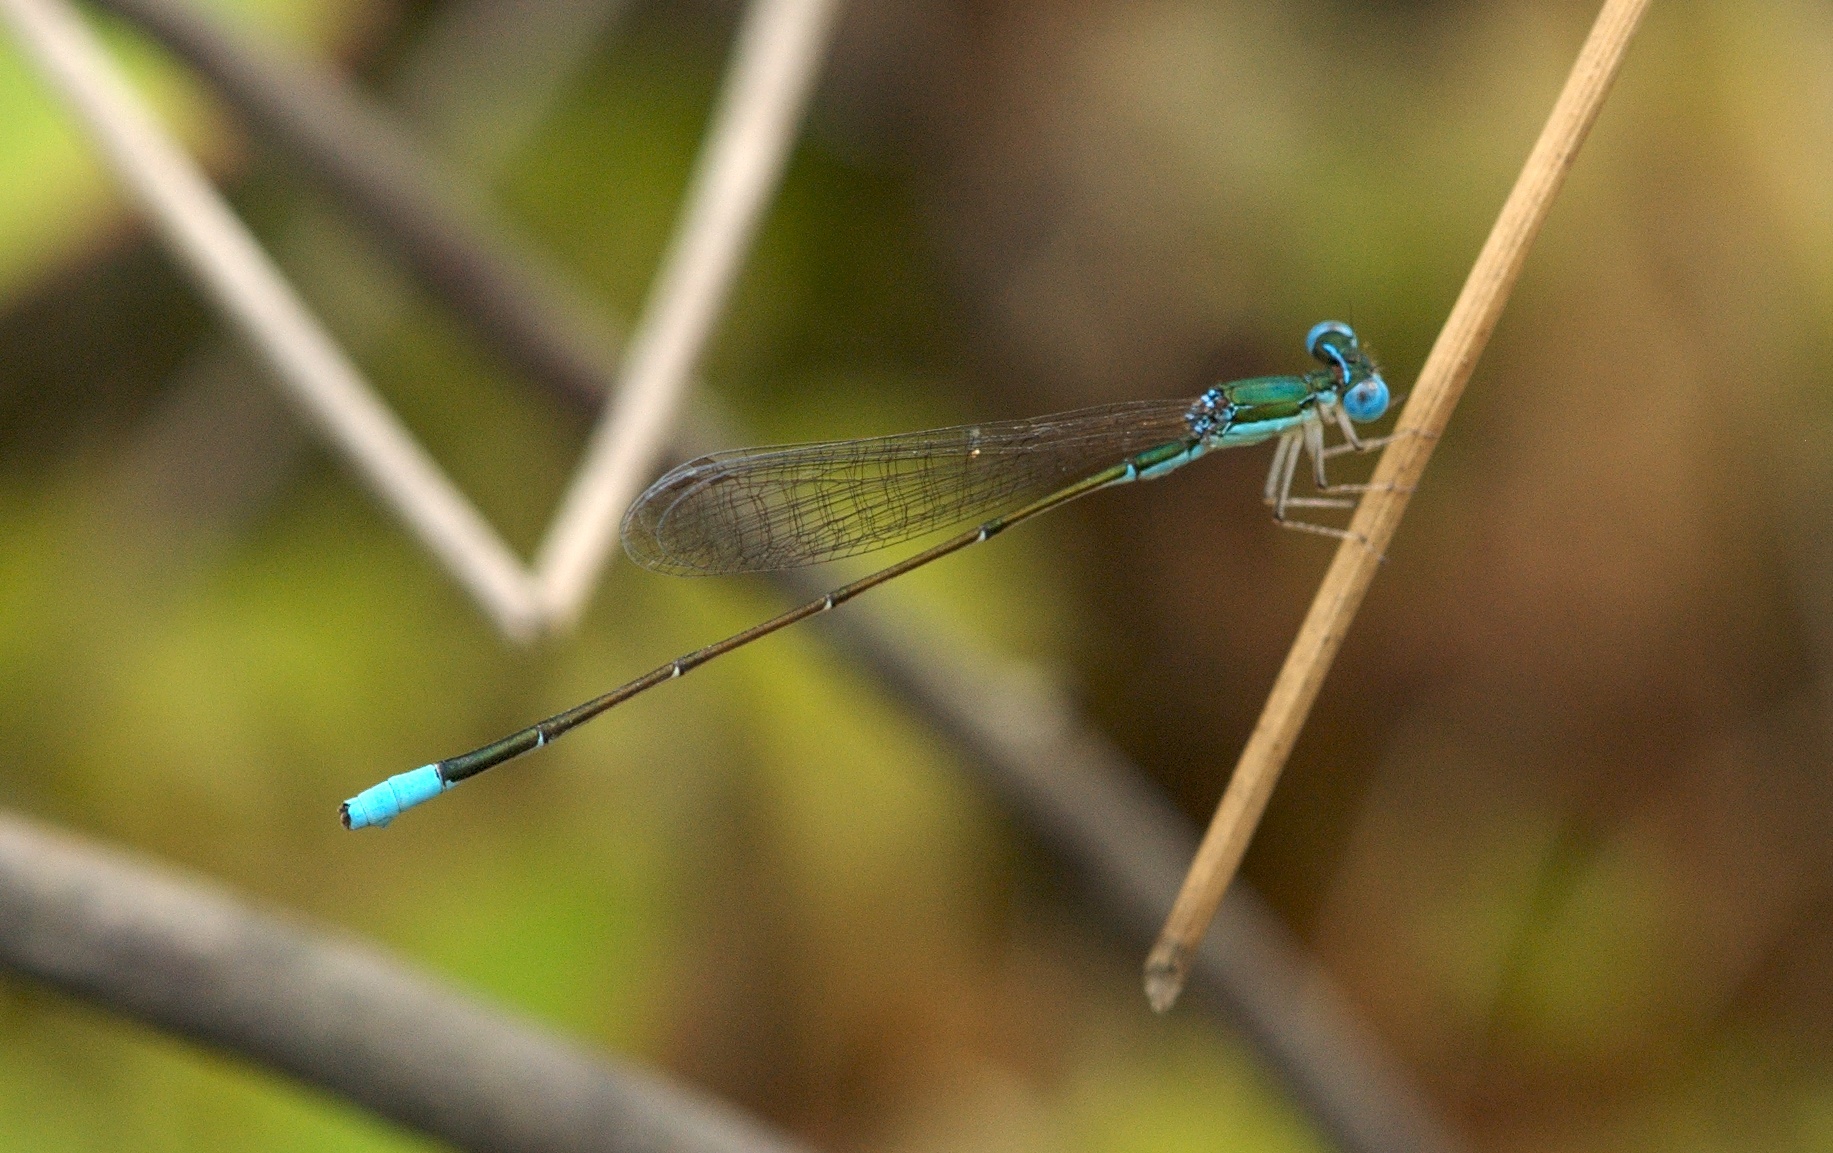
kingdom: Animalia
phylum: Arthropoda
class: Insecta
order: Odonata
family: Coenagrionidae
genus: Nehalennia
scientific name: Nehalennia gracilis
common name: Sphagnum sprite
